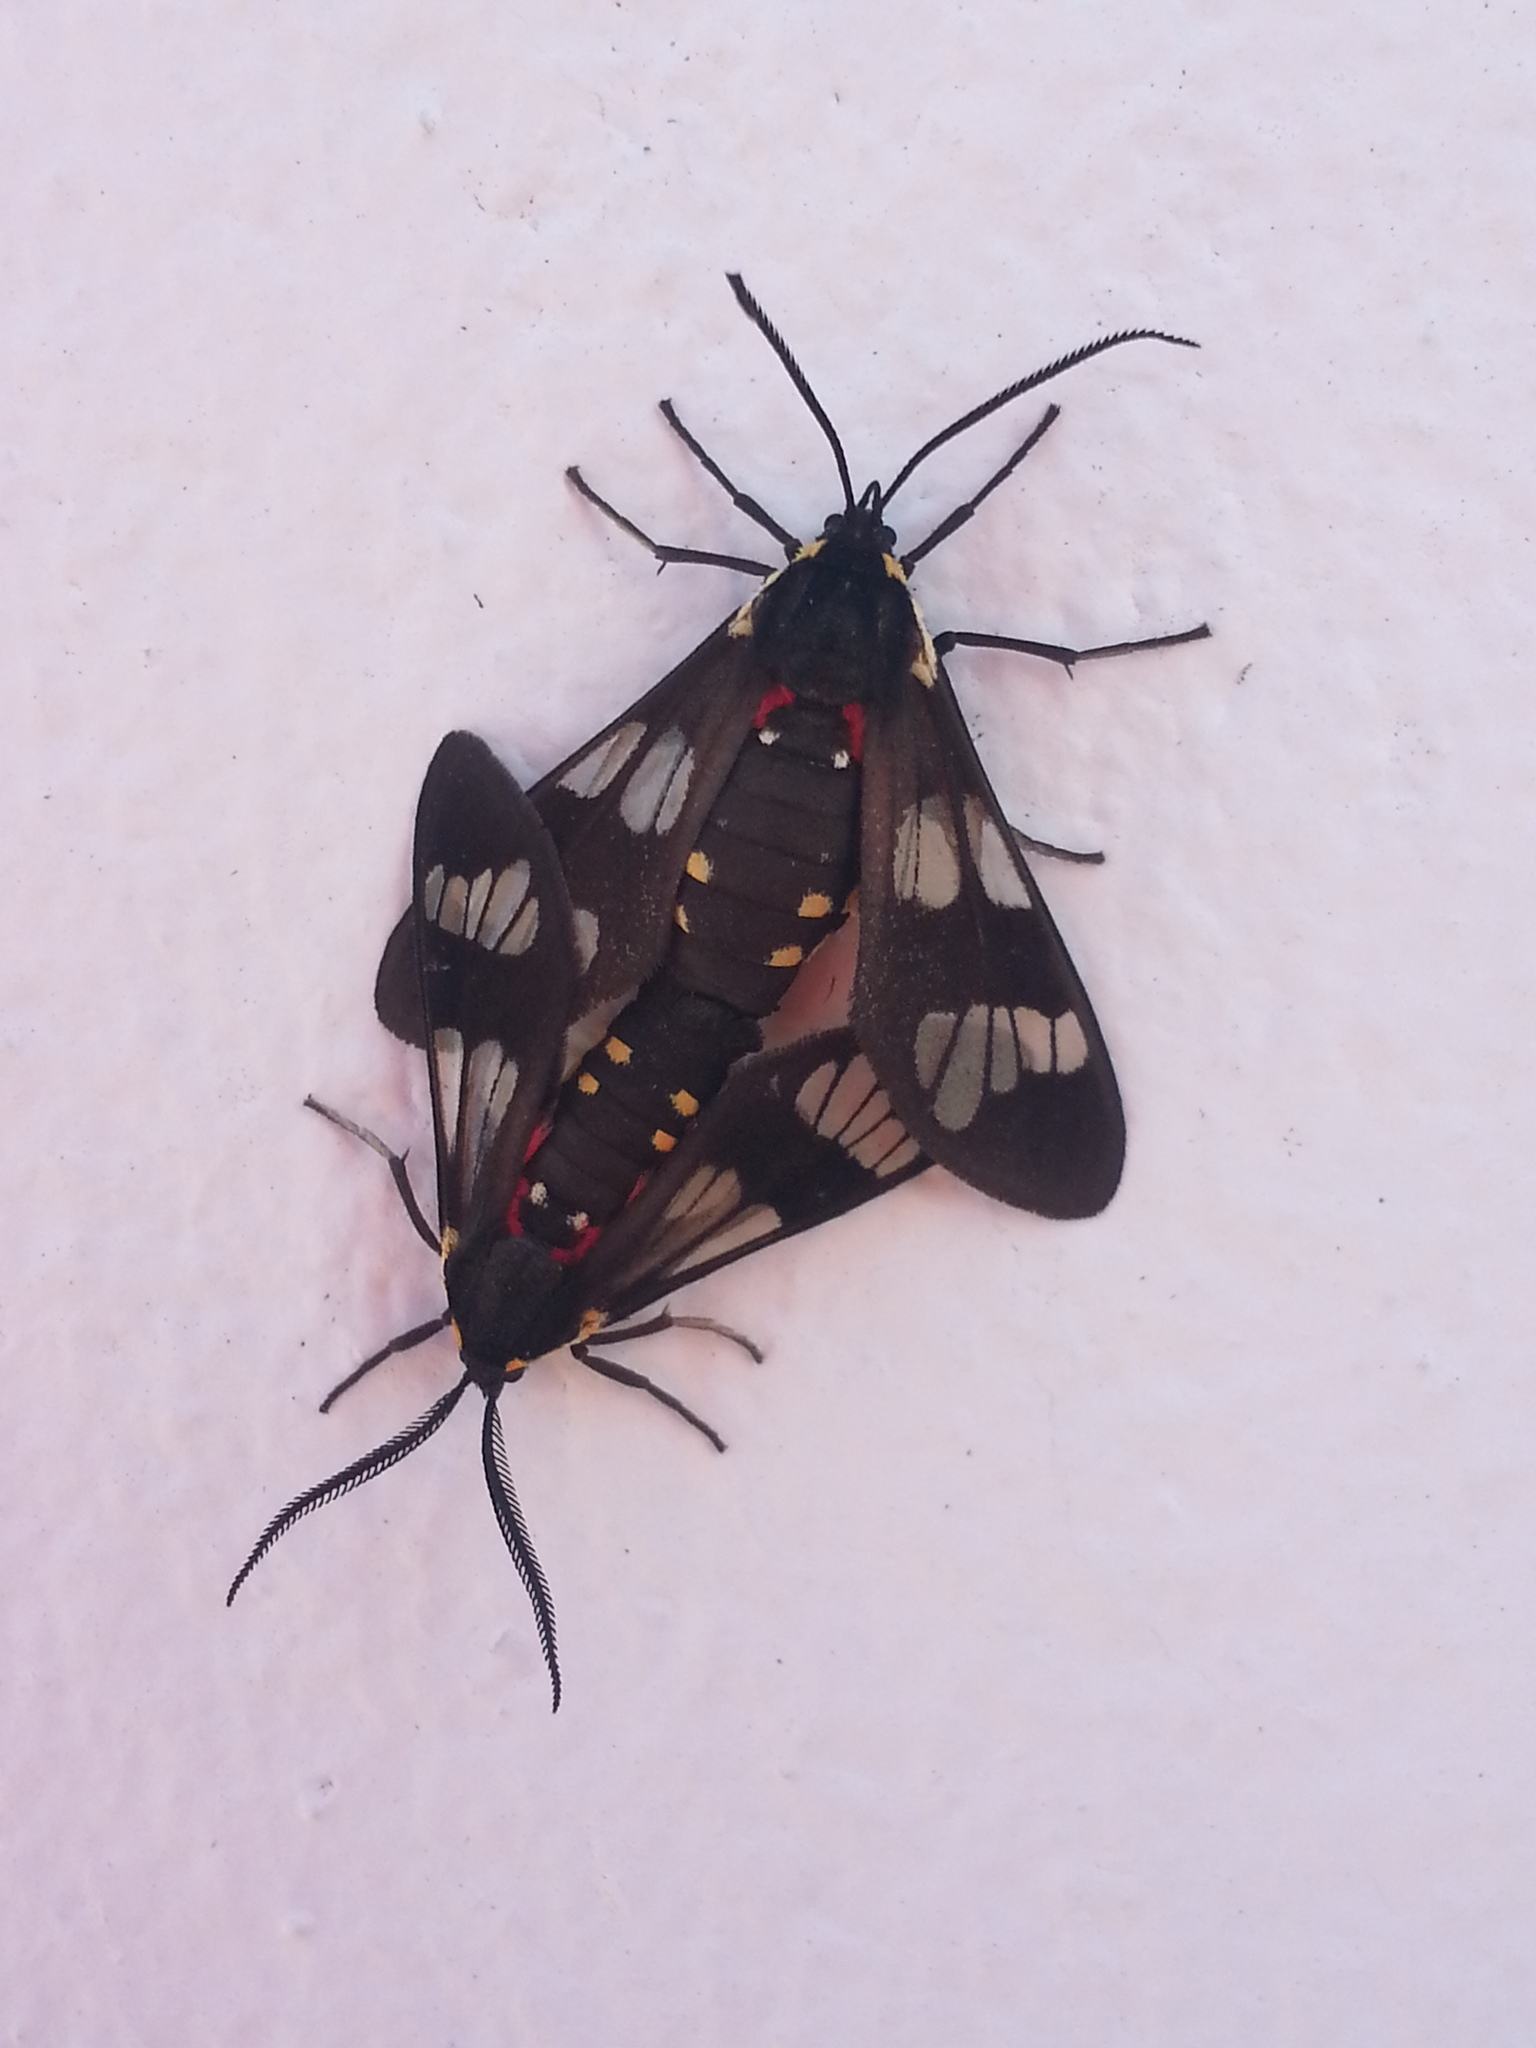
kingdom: Animalia
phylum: Arthropoda
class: Insecta
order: Lepidoptera
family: Erebidae
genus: Eurata
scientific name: Eurata hermione
